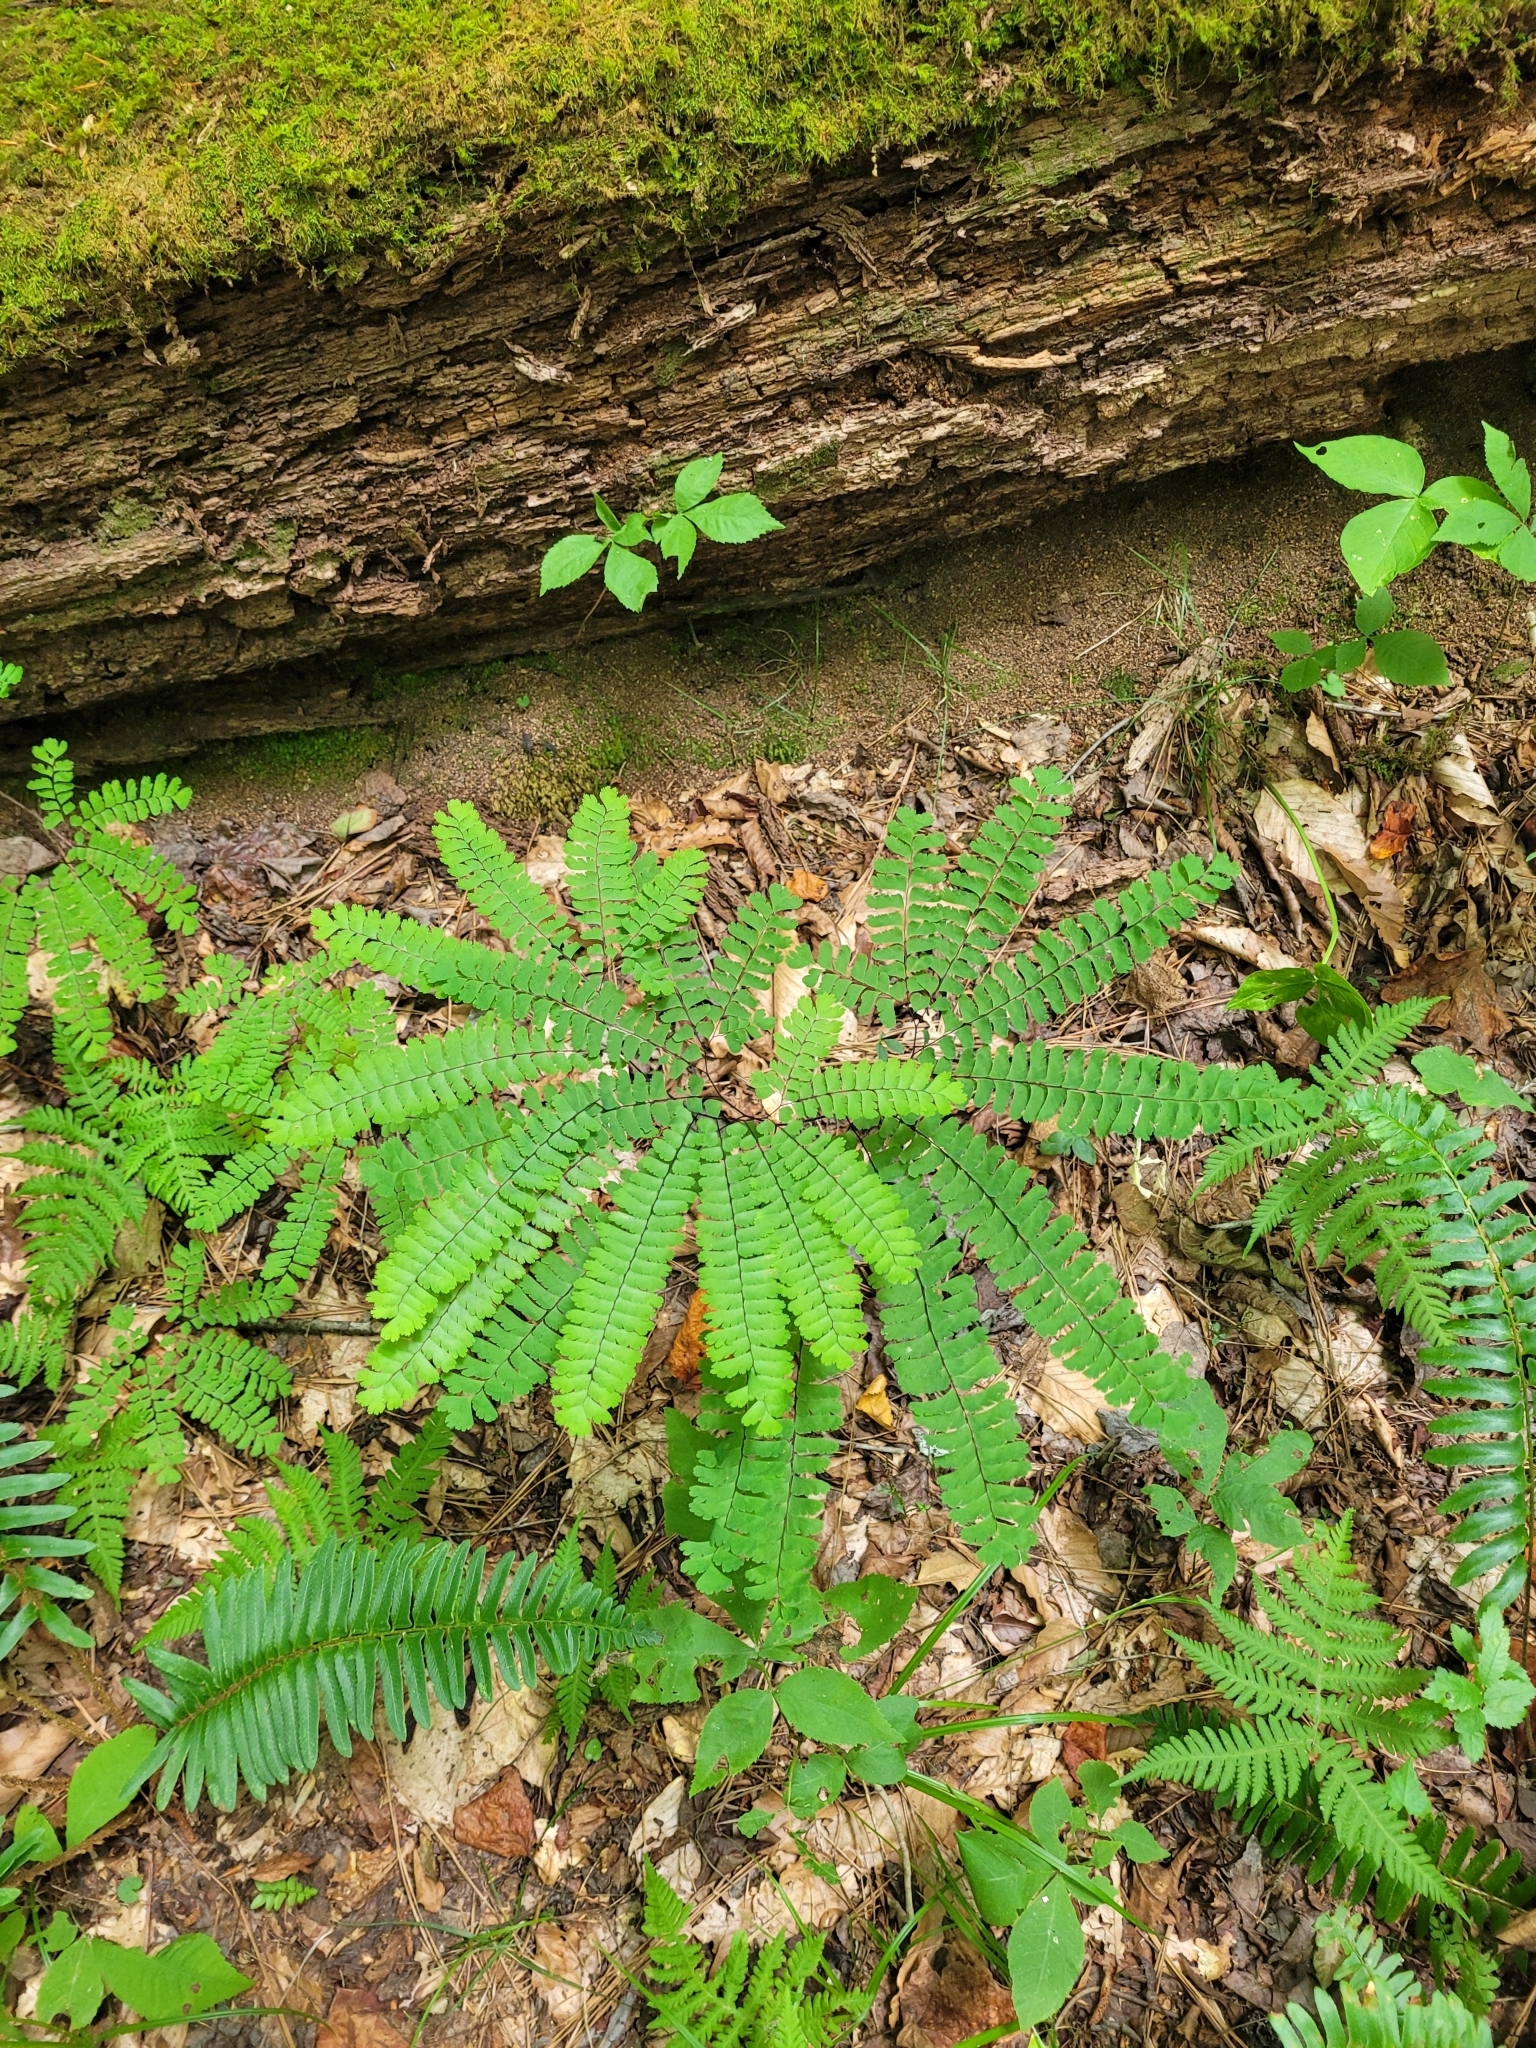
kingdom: Plantae
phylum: Tracheophyta
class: Polypodiopsida
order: Polypodiales
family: Pteridaceae
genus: Adiantum
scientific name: Adiantum pedatum
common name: Five-finger fern
